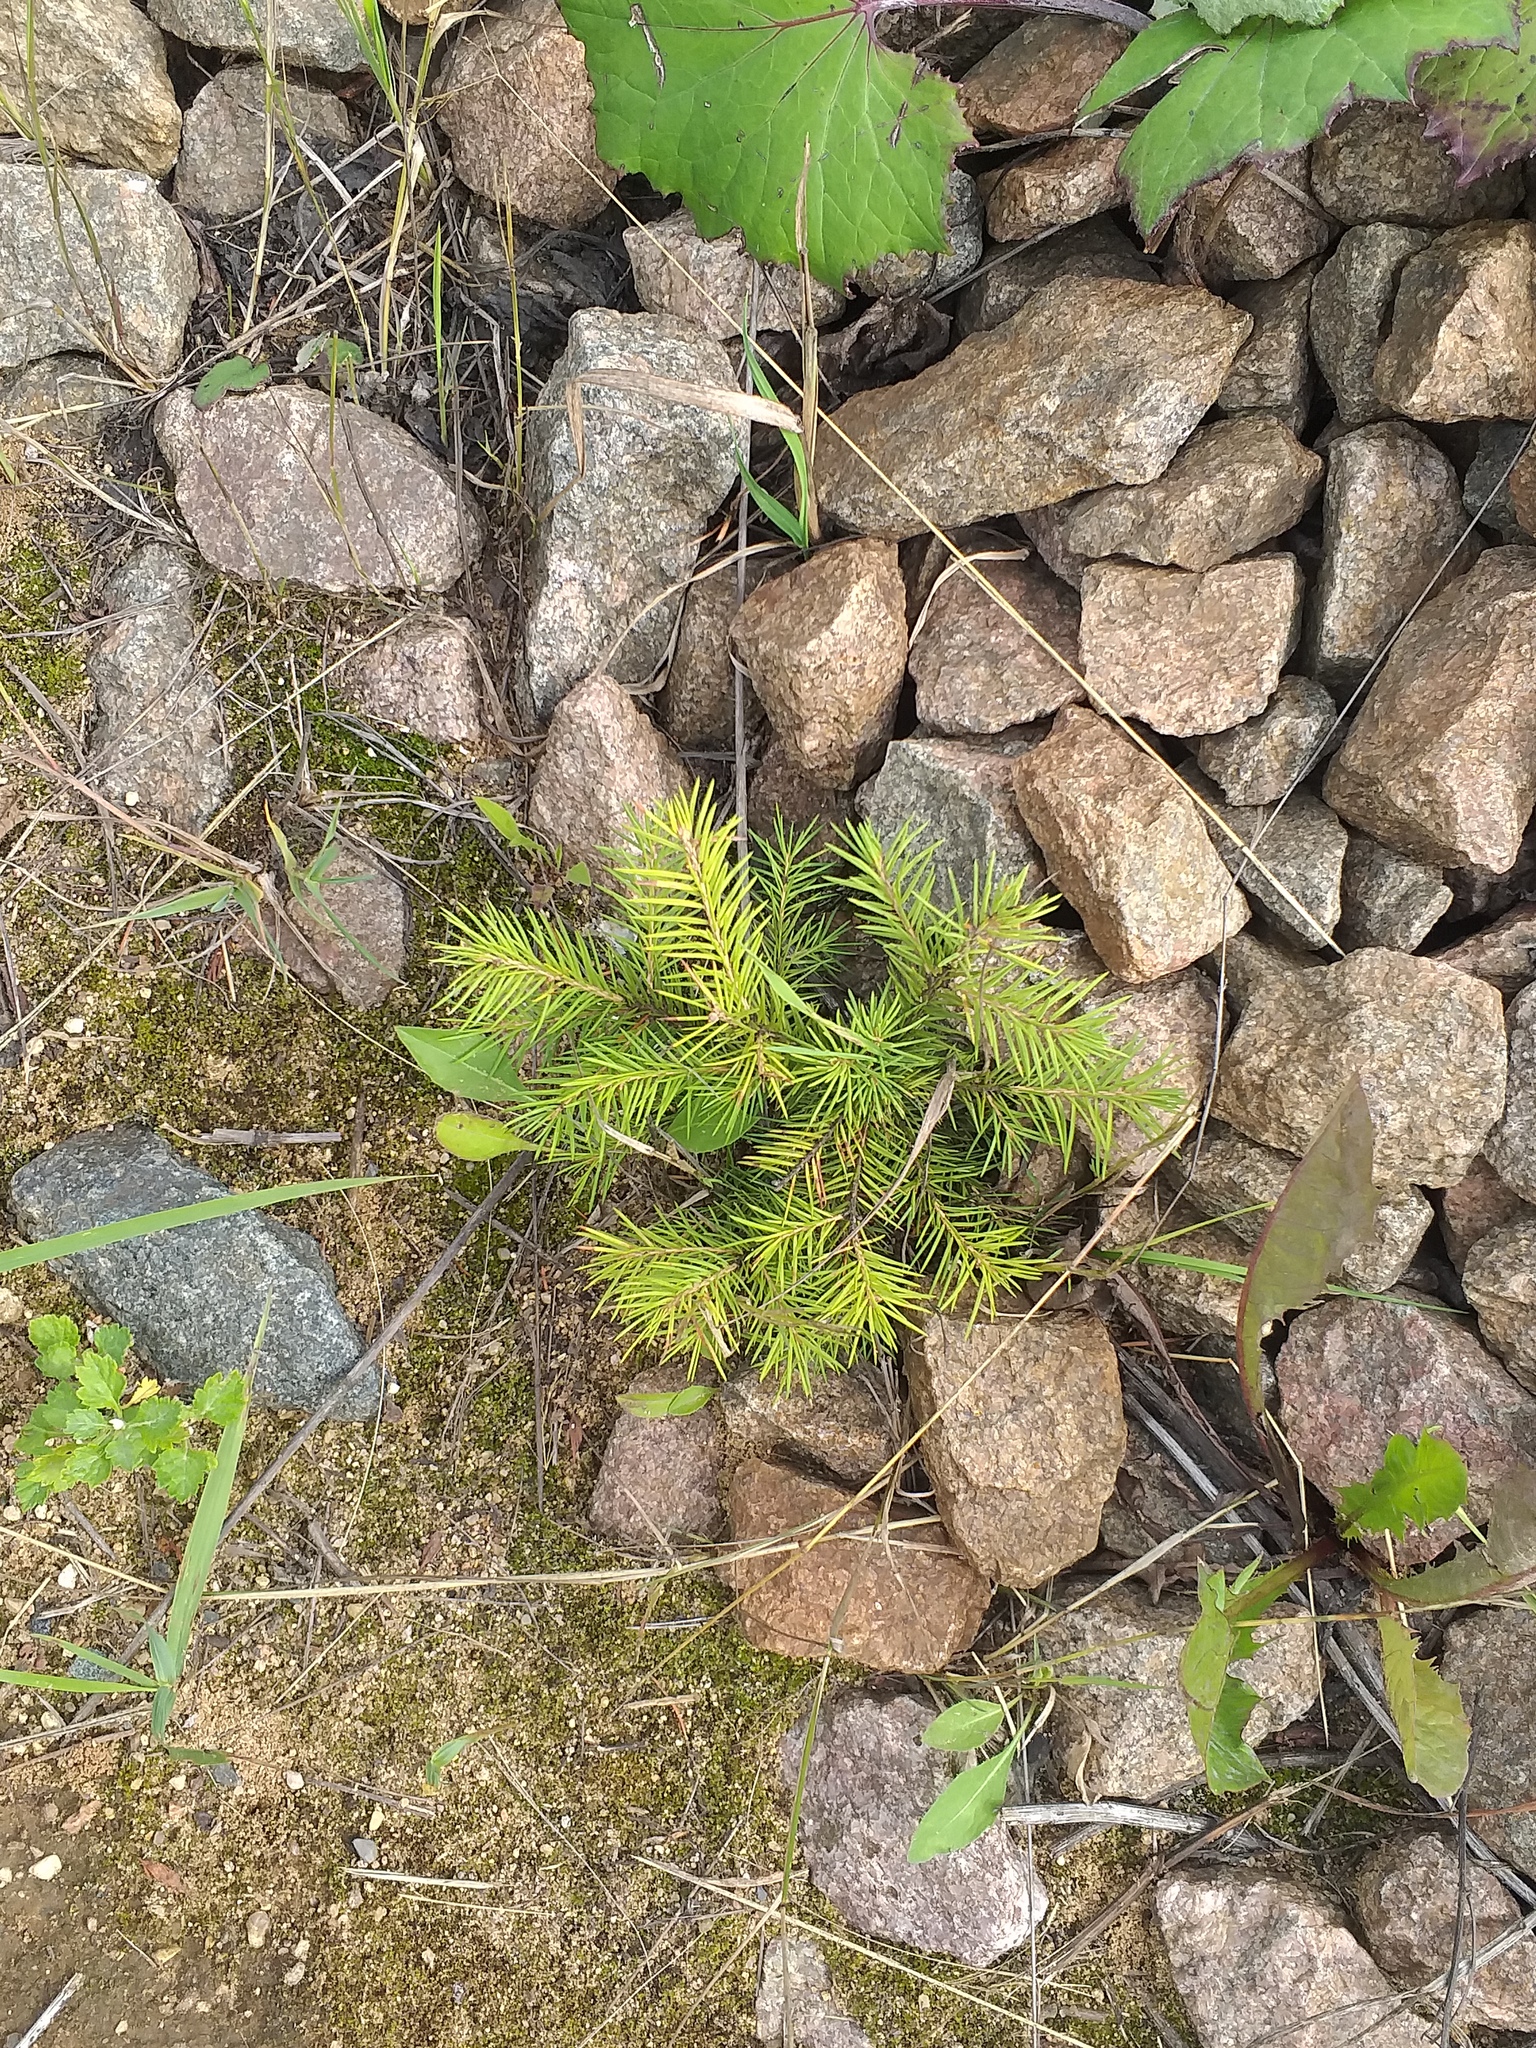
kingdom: Plantae
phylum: Tracheophyta
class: Pinopsida
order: Pinales
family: Pinaceae
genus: Picea
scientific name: Picea abies
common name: Norway spruce
